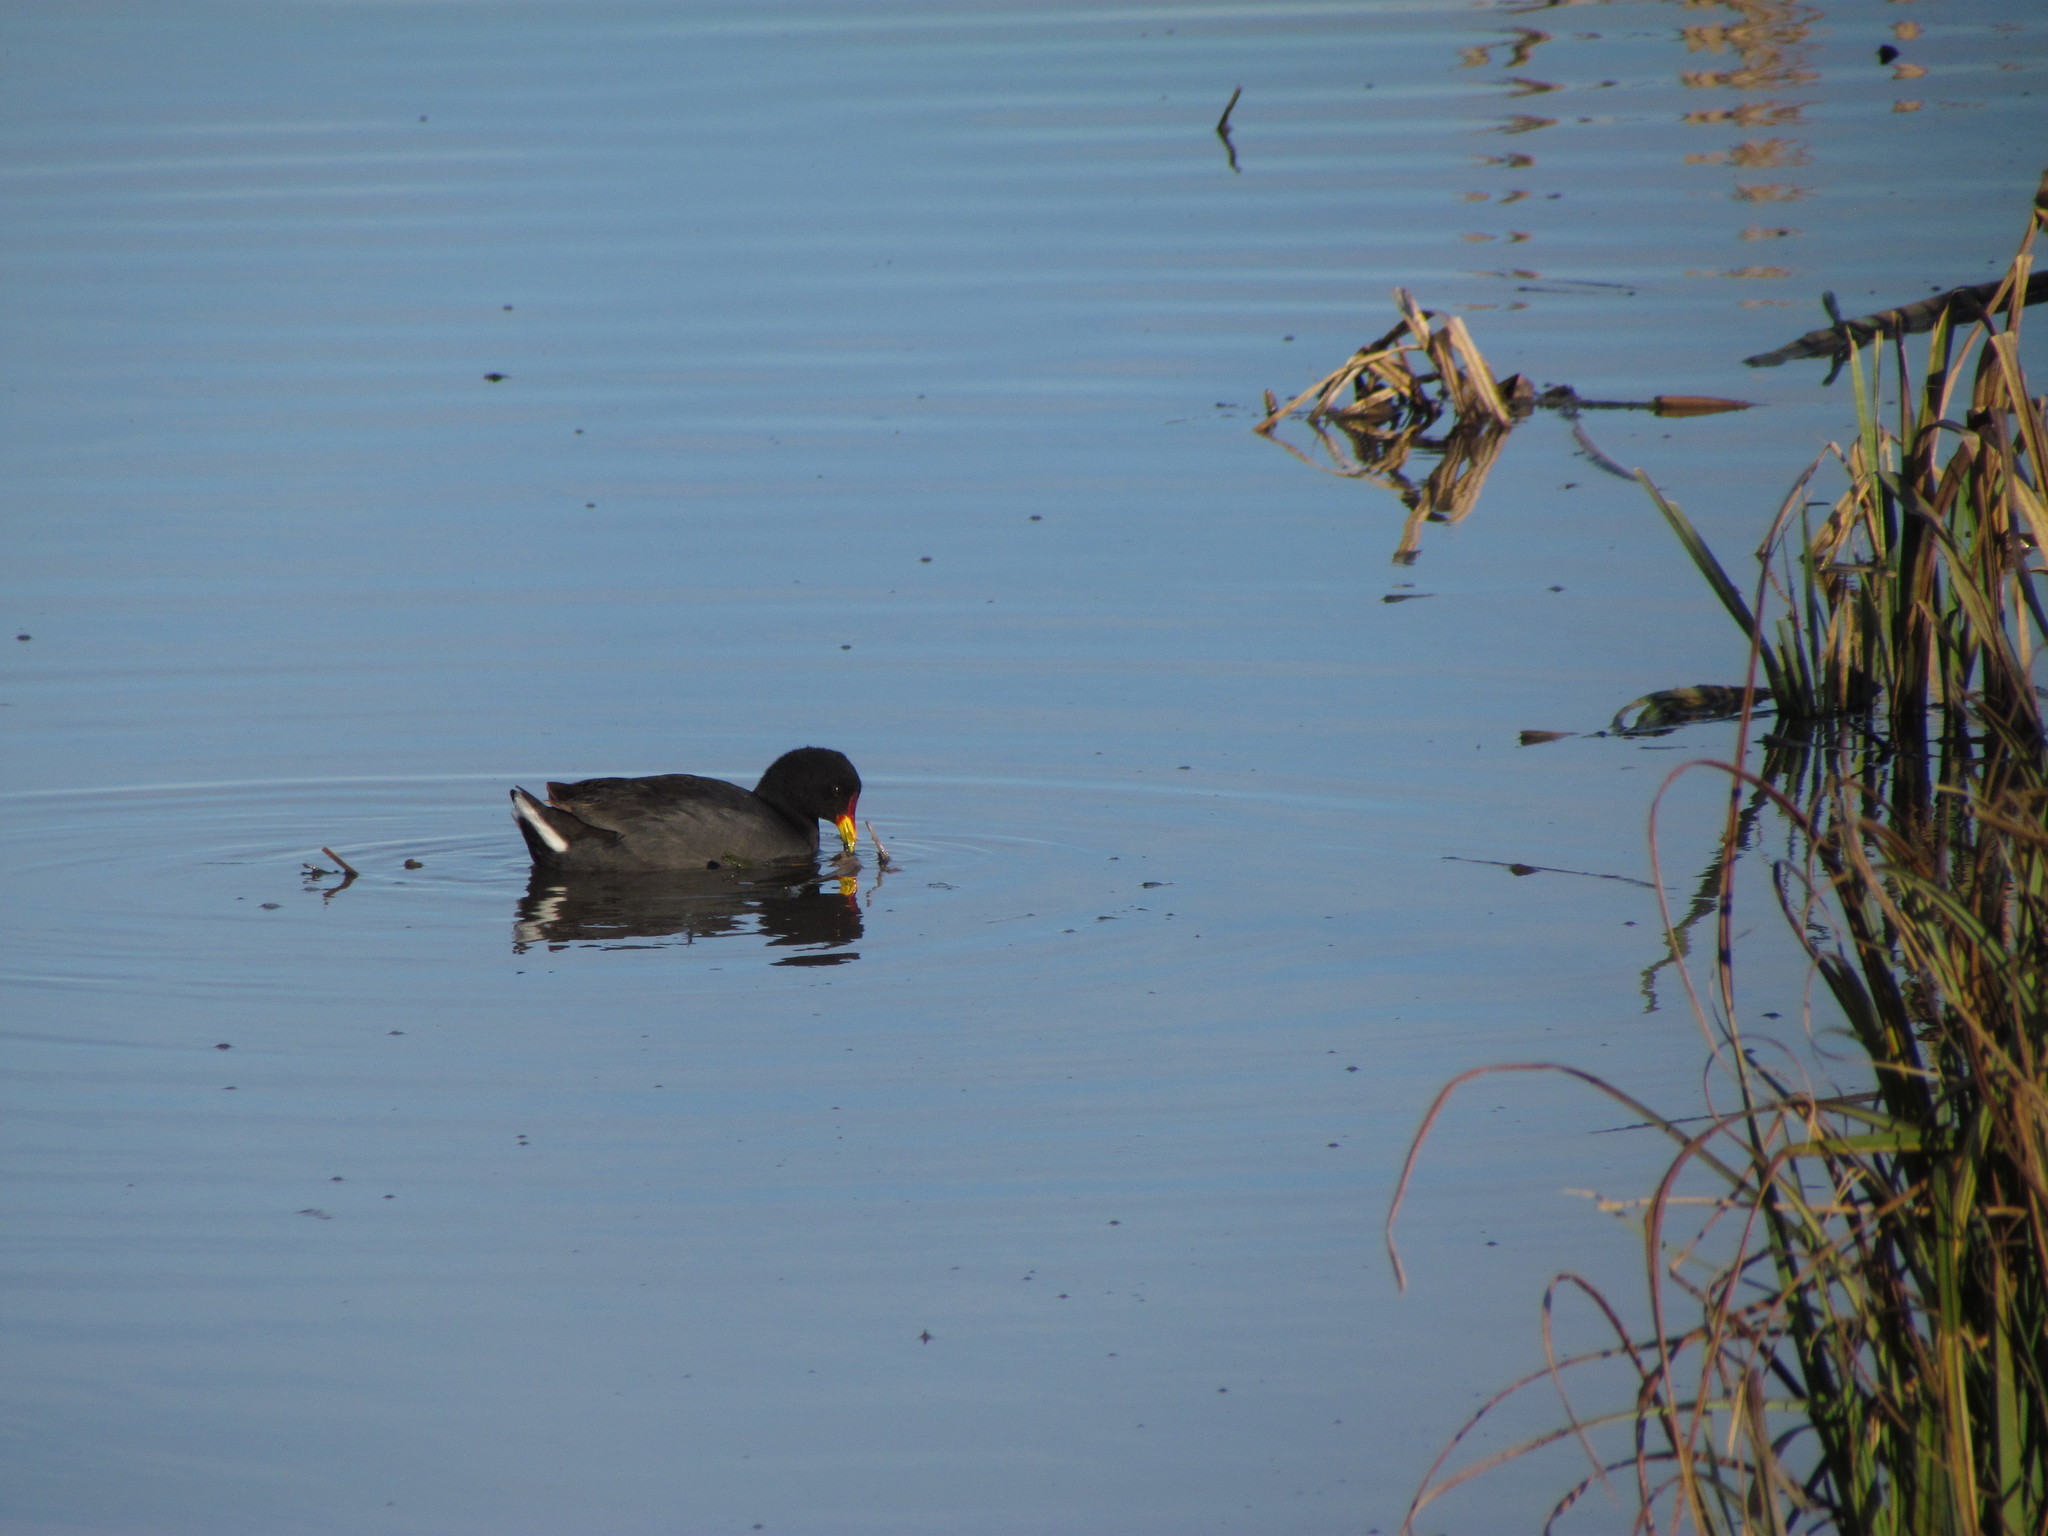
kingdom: Animalia
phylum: Chordata
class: Aves
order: Gruiformes
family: Rallidae
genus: Fulica
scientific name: Fulica rufifrons
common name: Red-fronted coot
